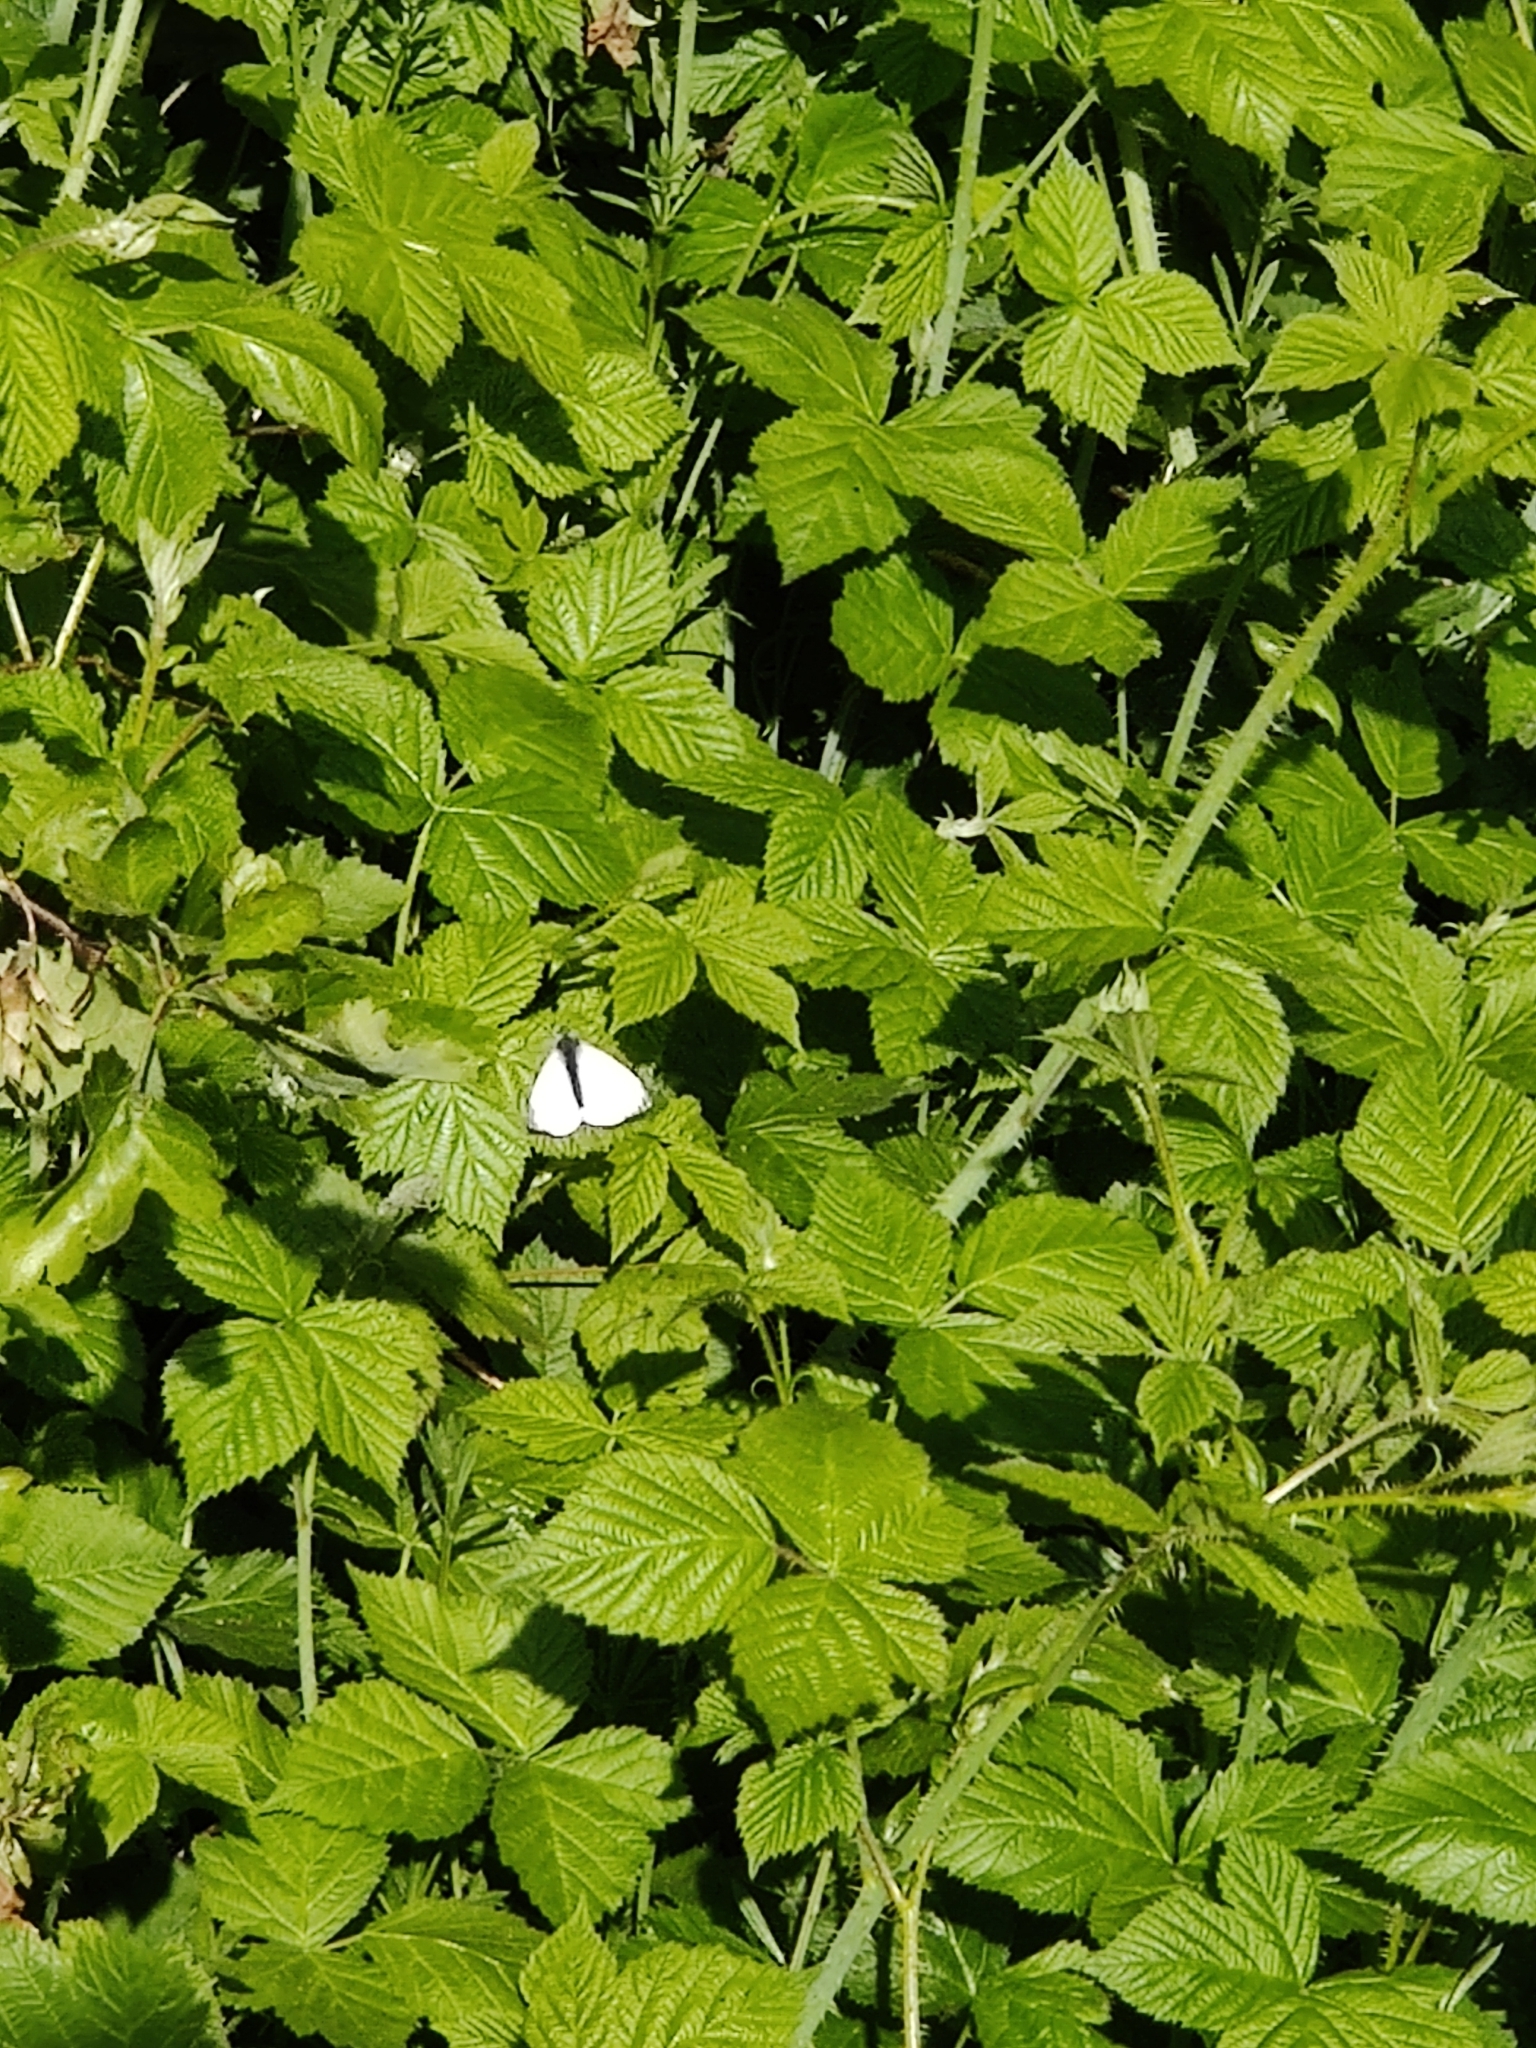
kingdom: Animalia
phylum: Arthropoda
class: Insecta
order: Lepidoptera
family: Pieridae
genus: Pieris
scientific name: Pieris napi
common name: Green-veined white
